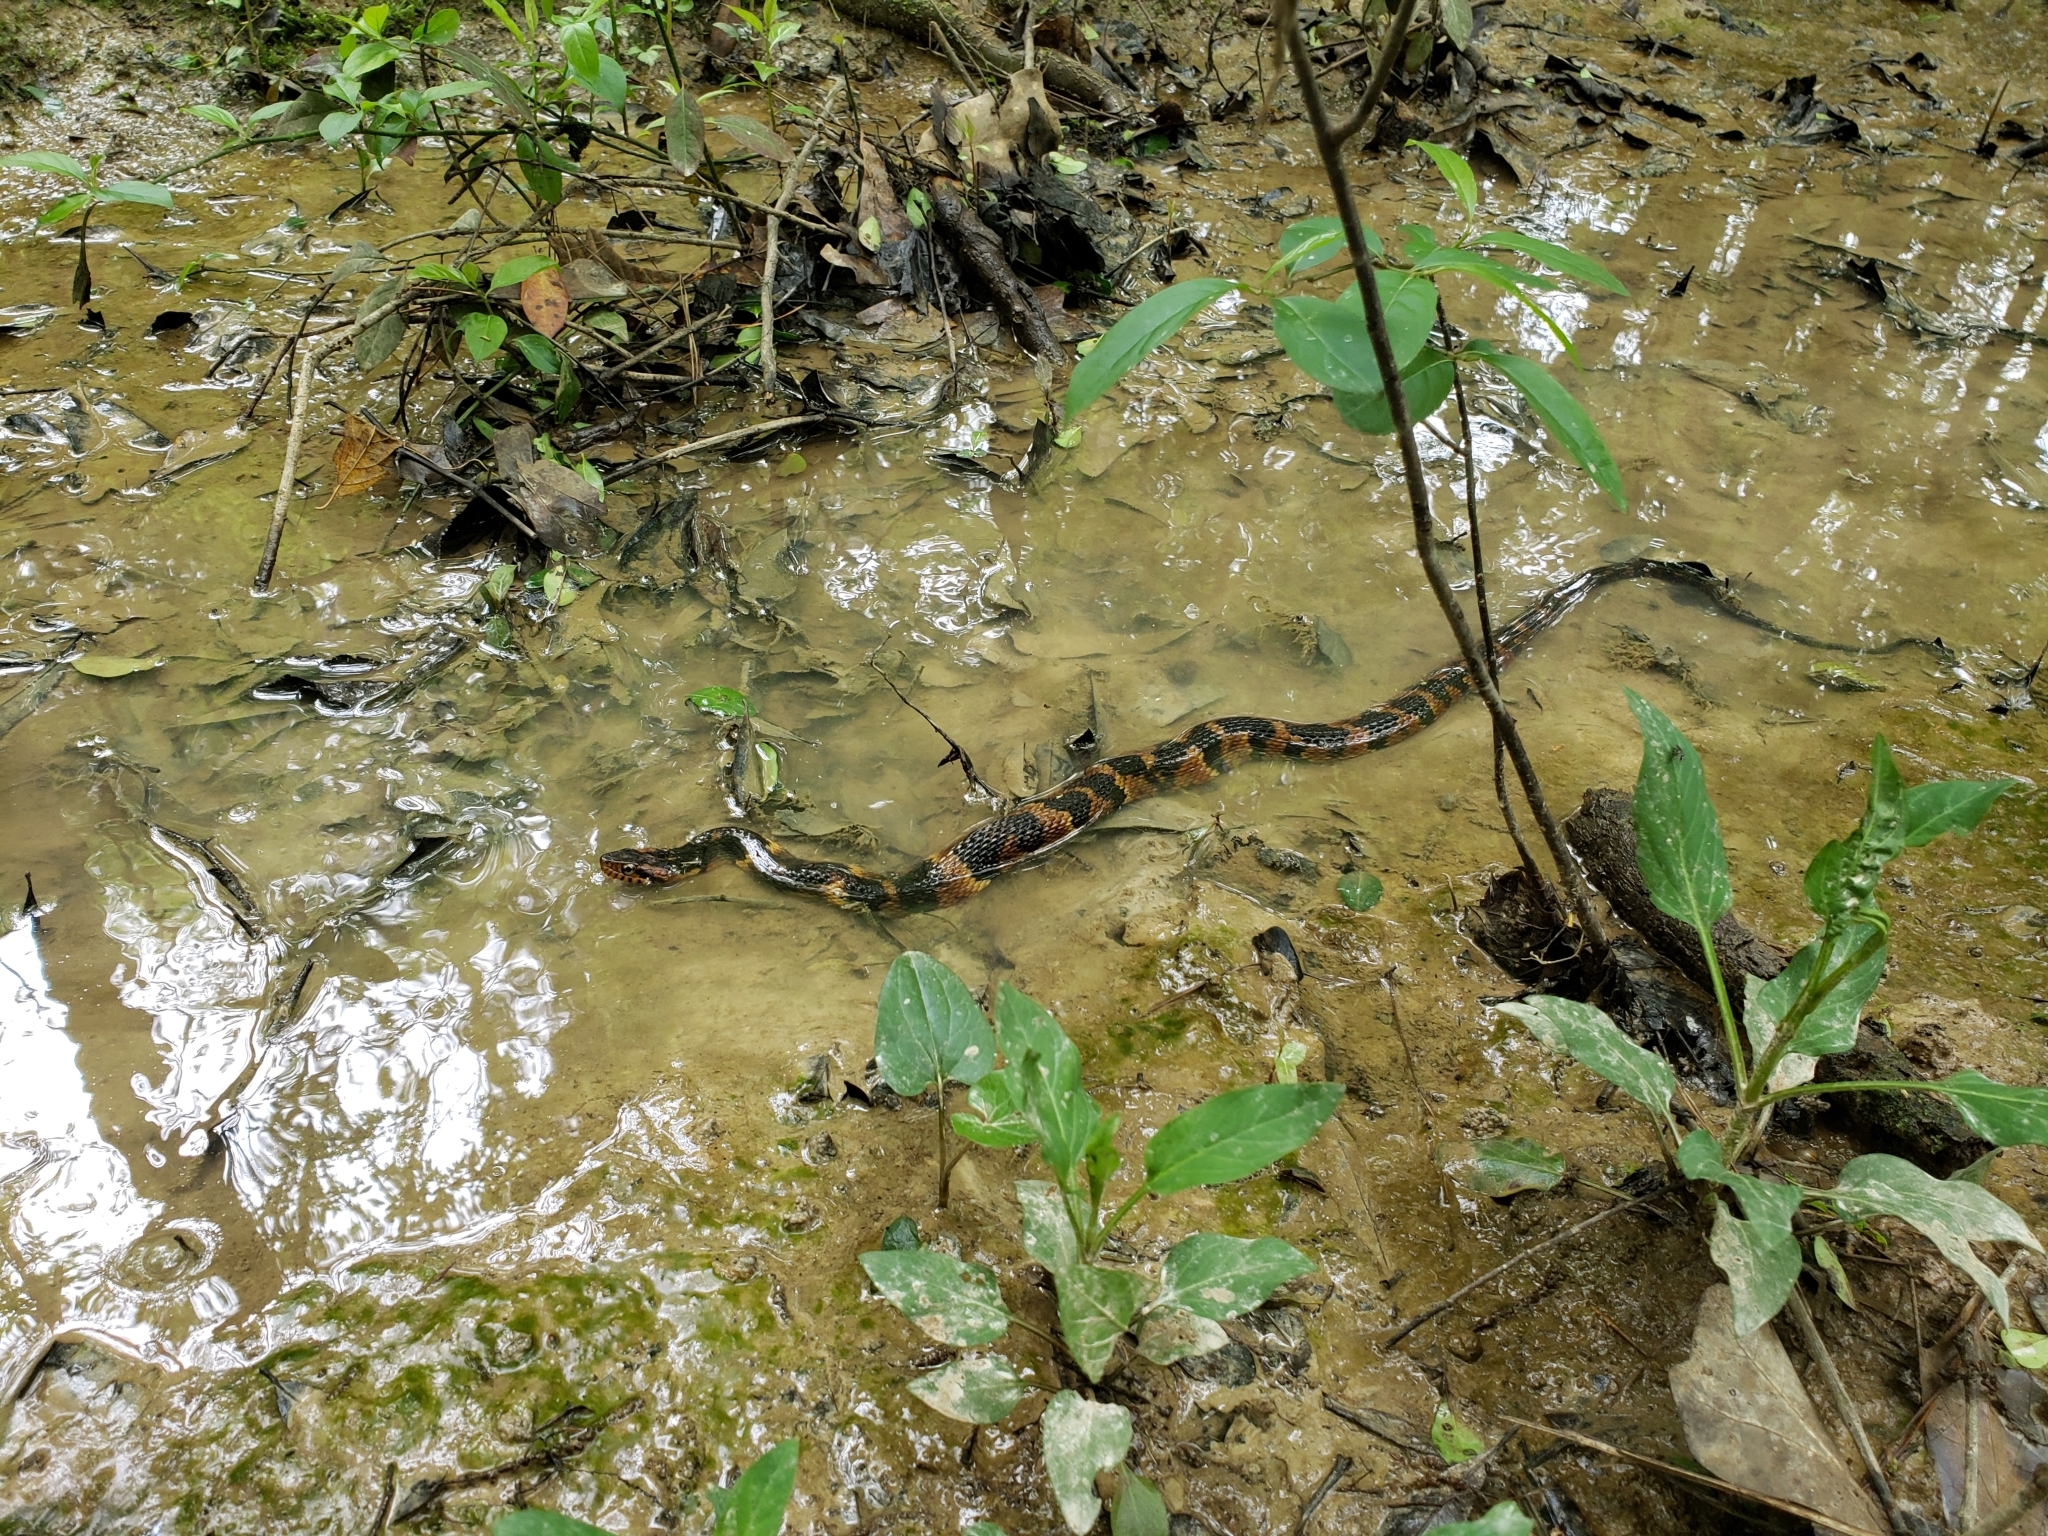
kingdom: Animalia
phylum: Chordata
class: Squamata
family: Colubridae
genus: Nerodia
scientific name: Nerodia fasciata
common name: Southern water snake
